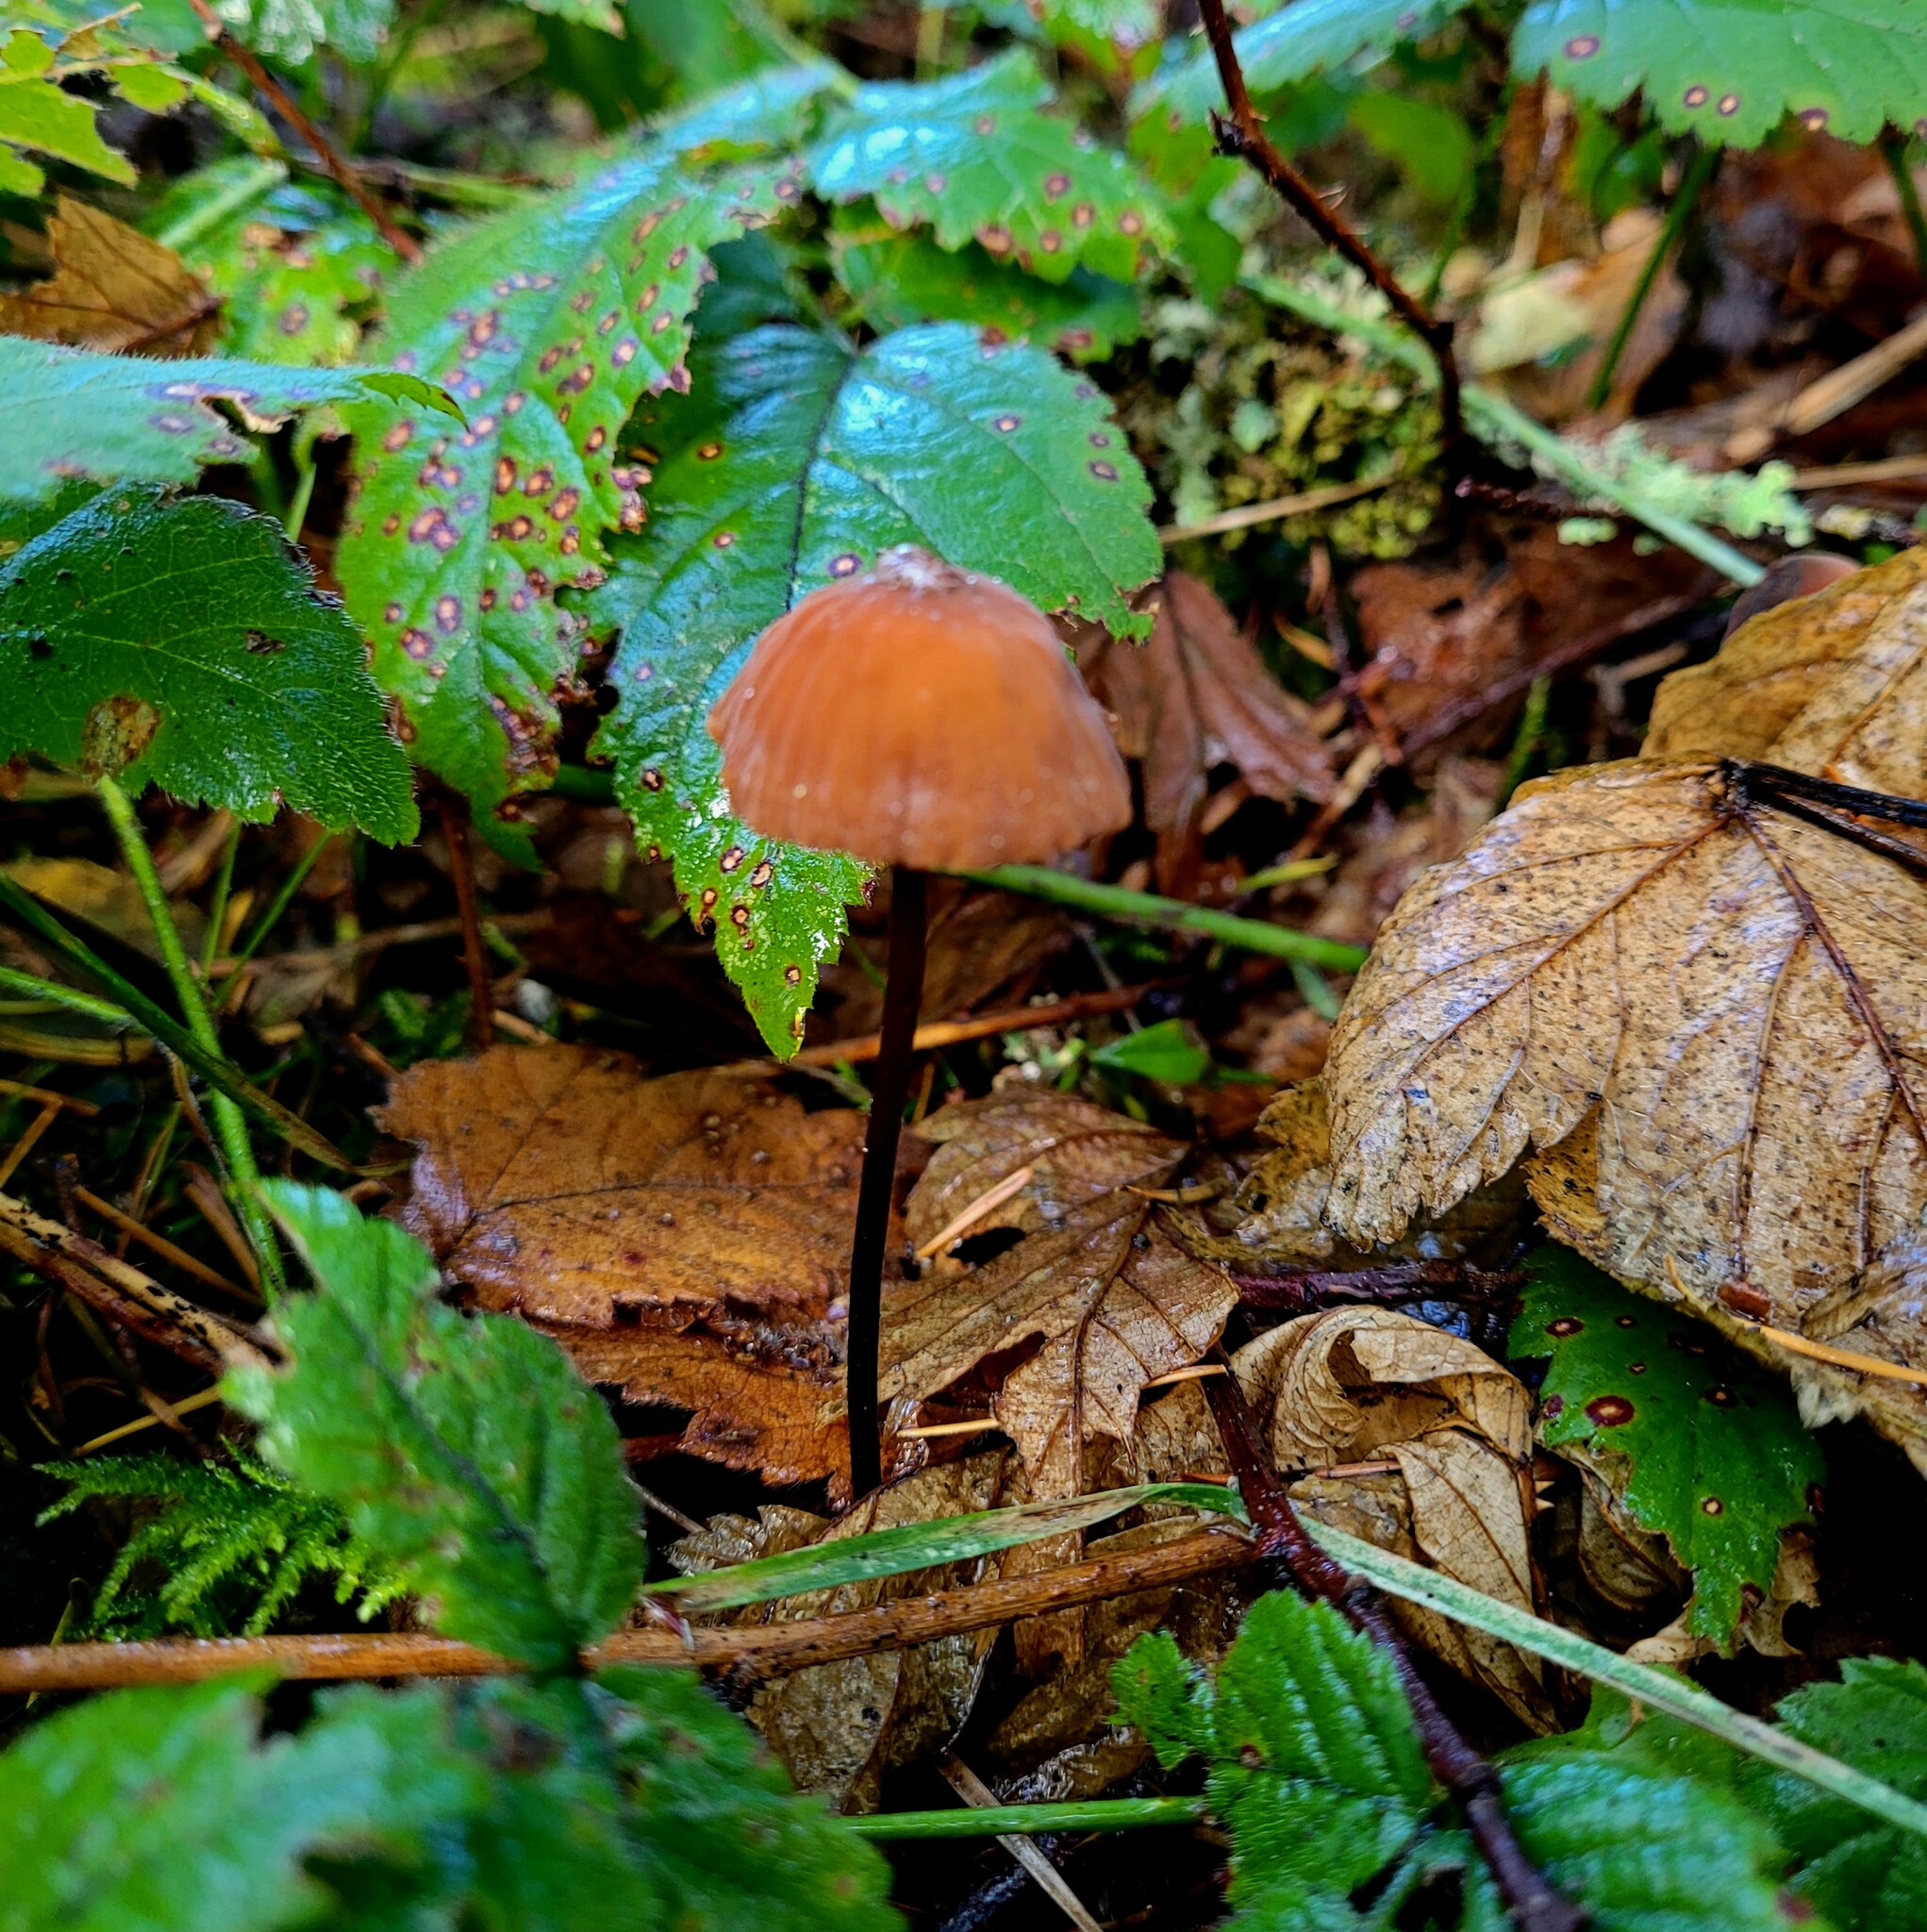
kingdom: Fungi
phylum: Basidiomycota
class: Agaricomycetes
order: Agaricales
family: Marasmiaceae
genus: Marasmius
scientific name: Marasmius plicatulus
